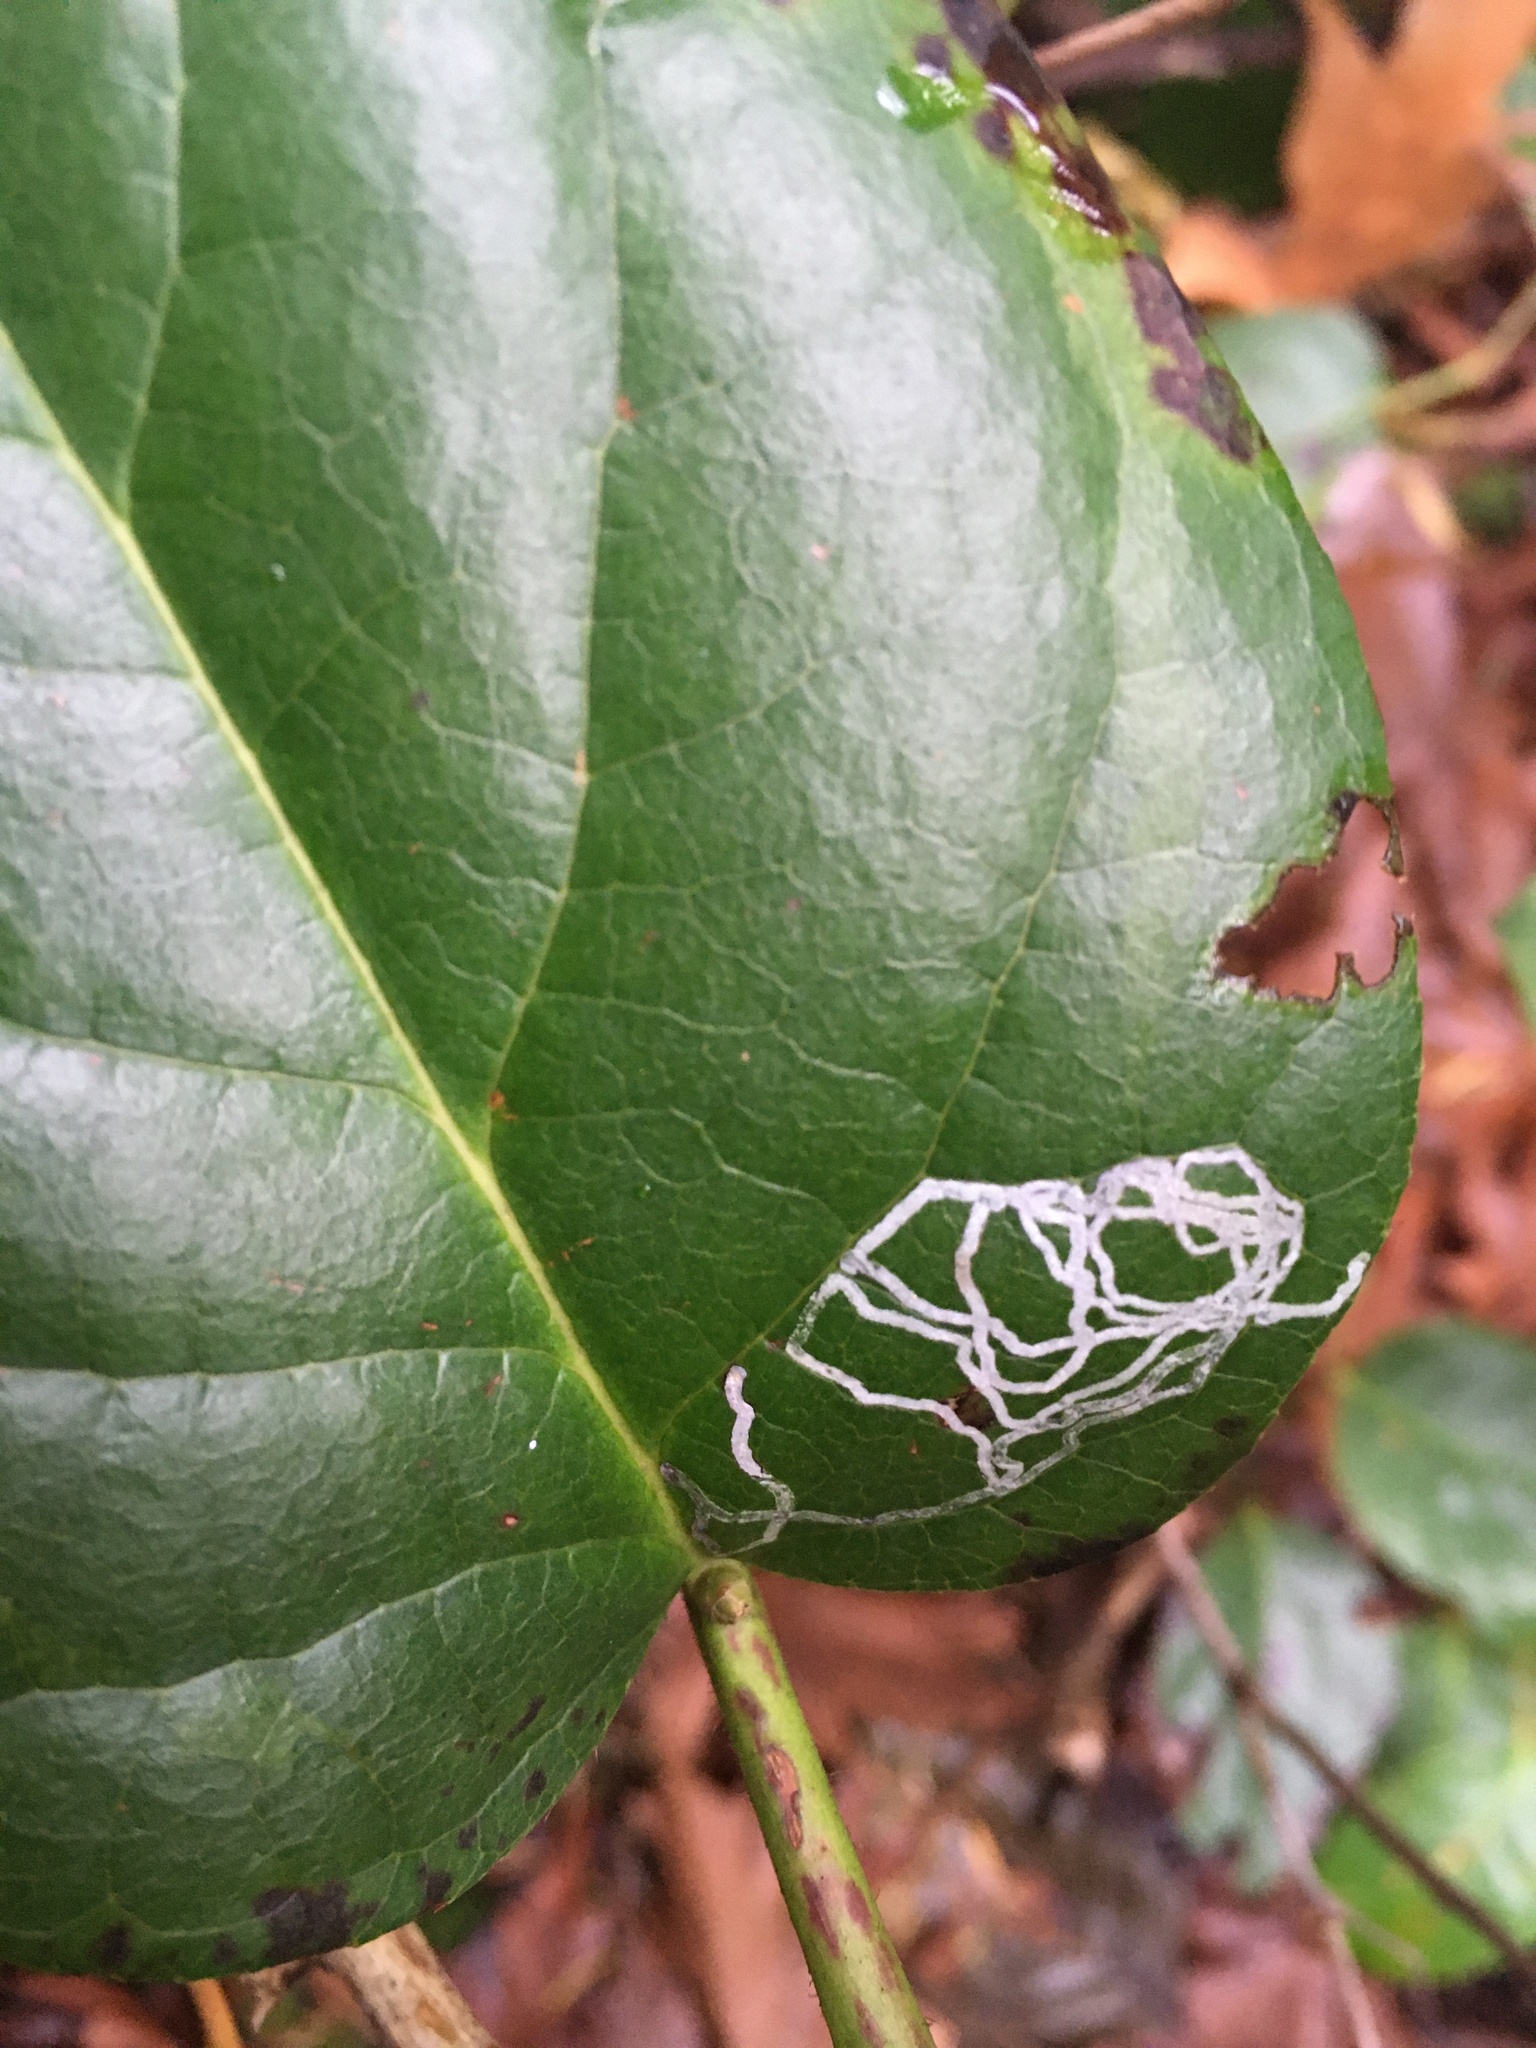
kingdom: Animalia
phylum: Arthropoda
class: Insecta
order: Lepidoptera
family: Gracillariidae
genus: Marmara
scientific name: Marmara arbutiella
